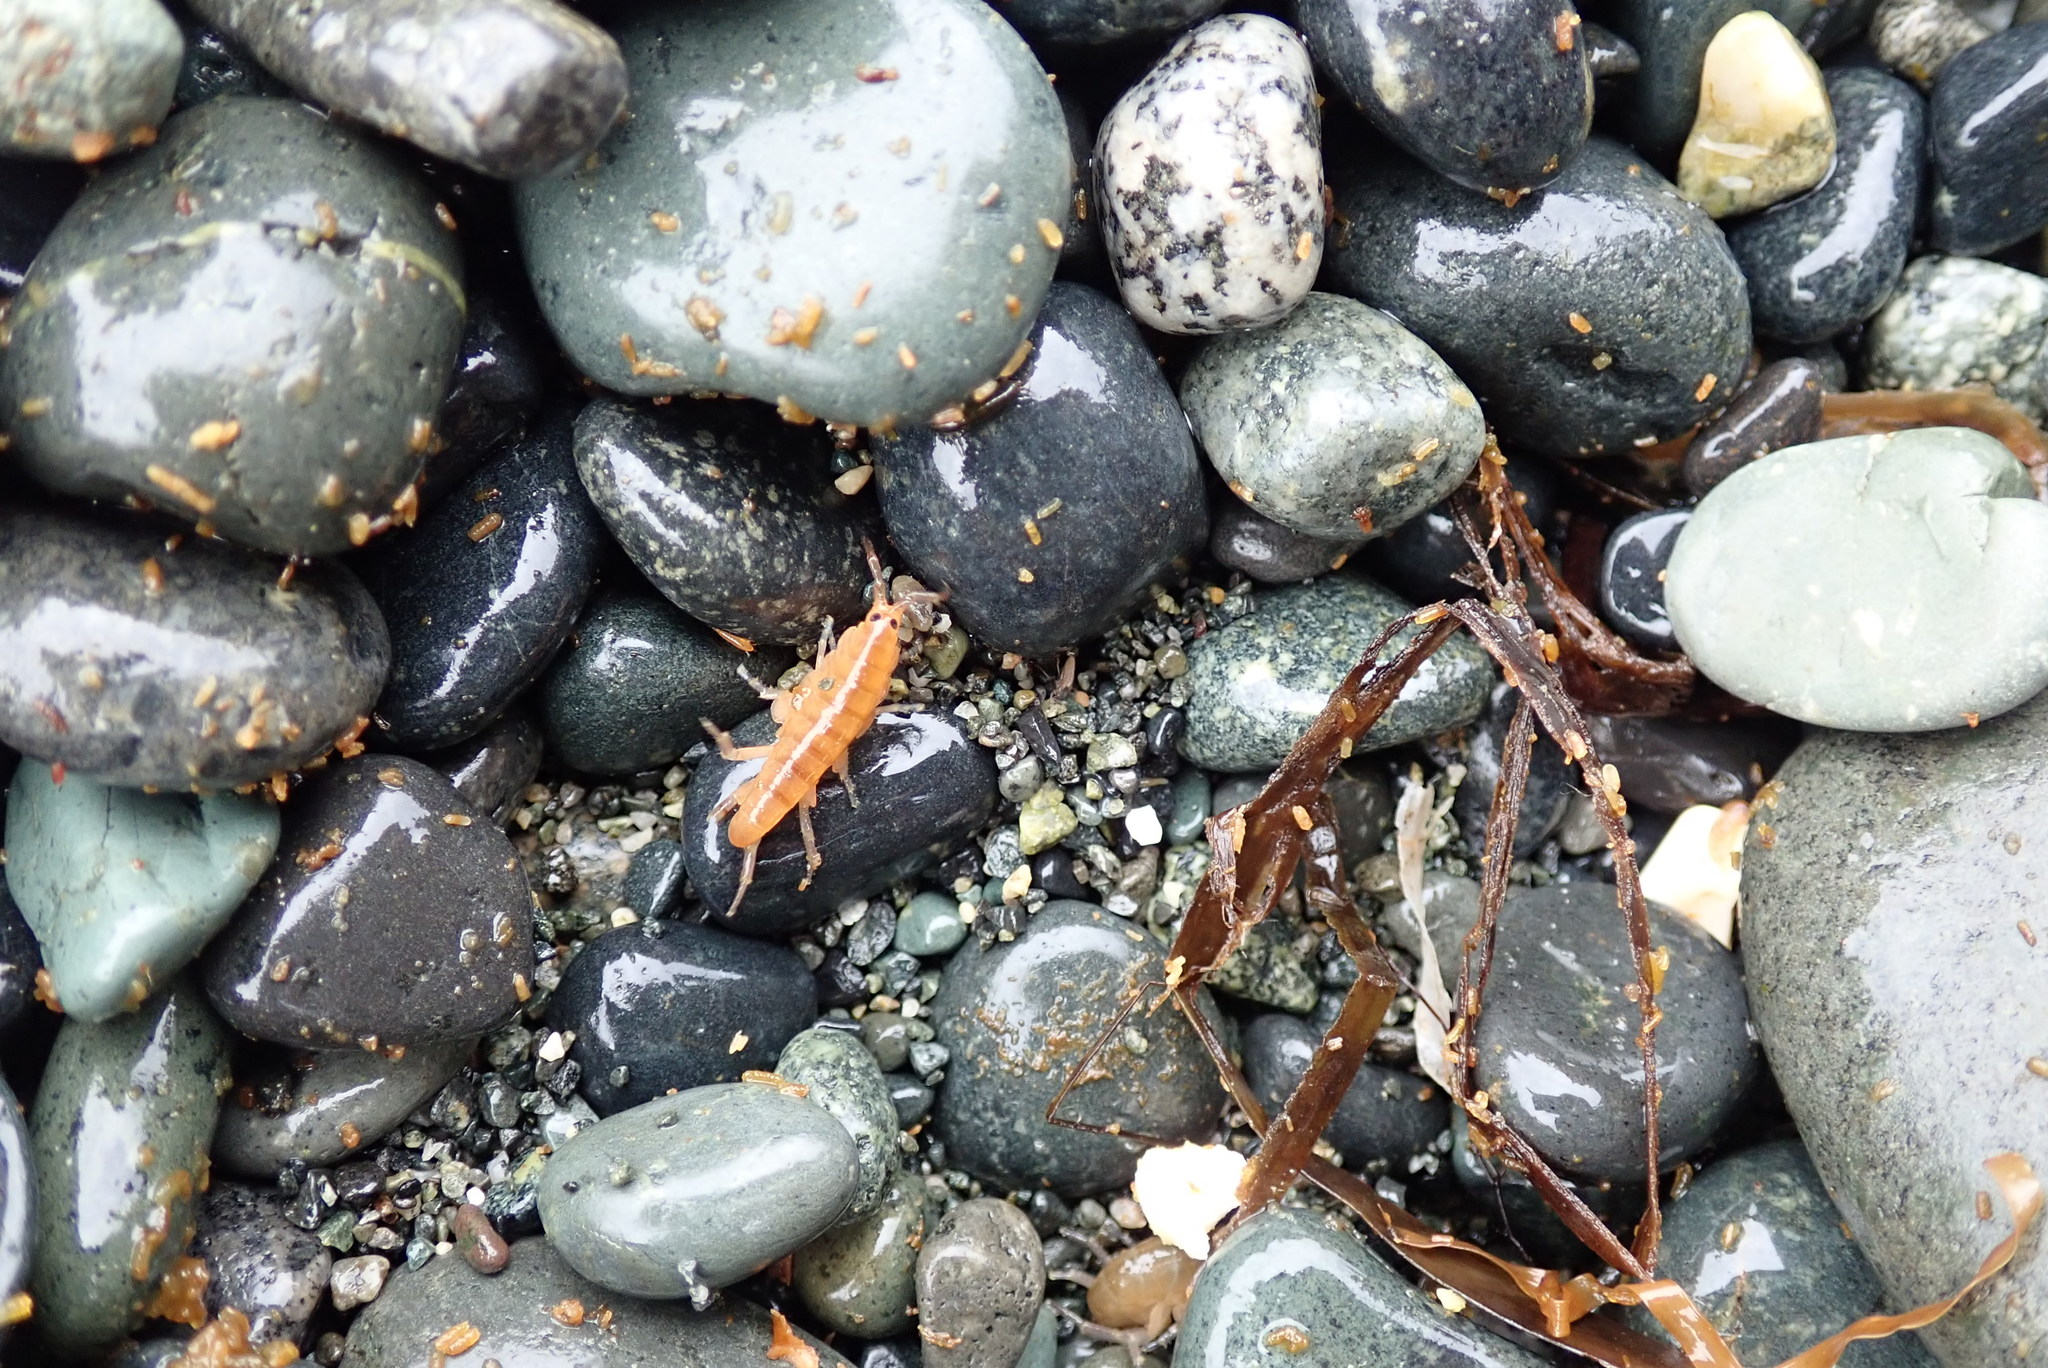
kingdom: Animalia
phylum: Arthropoda
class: Malacostraca
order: Amphipoda
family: Talitridae
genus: Traskorchestia
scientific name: Traskorchestia traskiana
